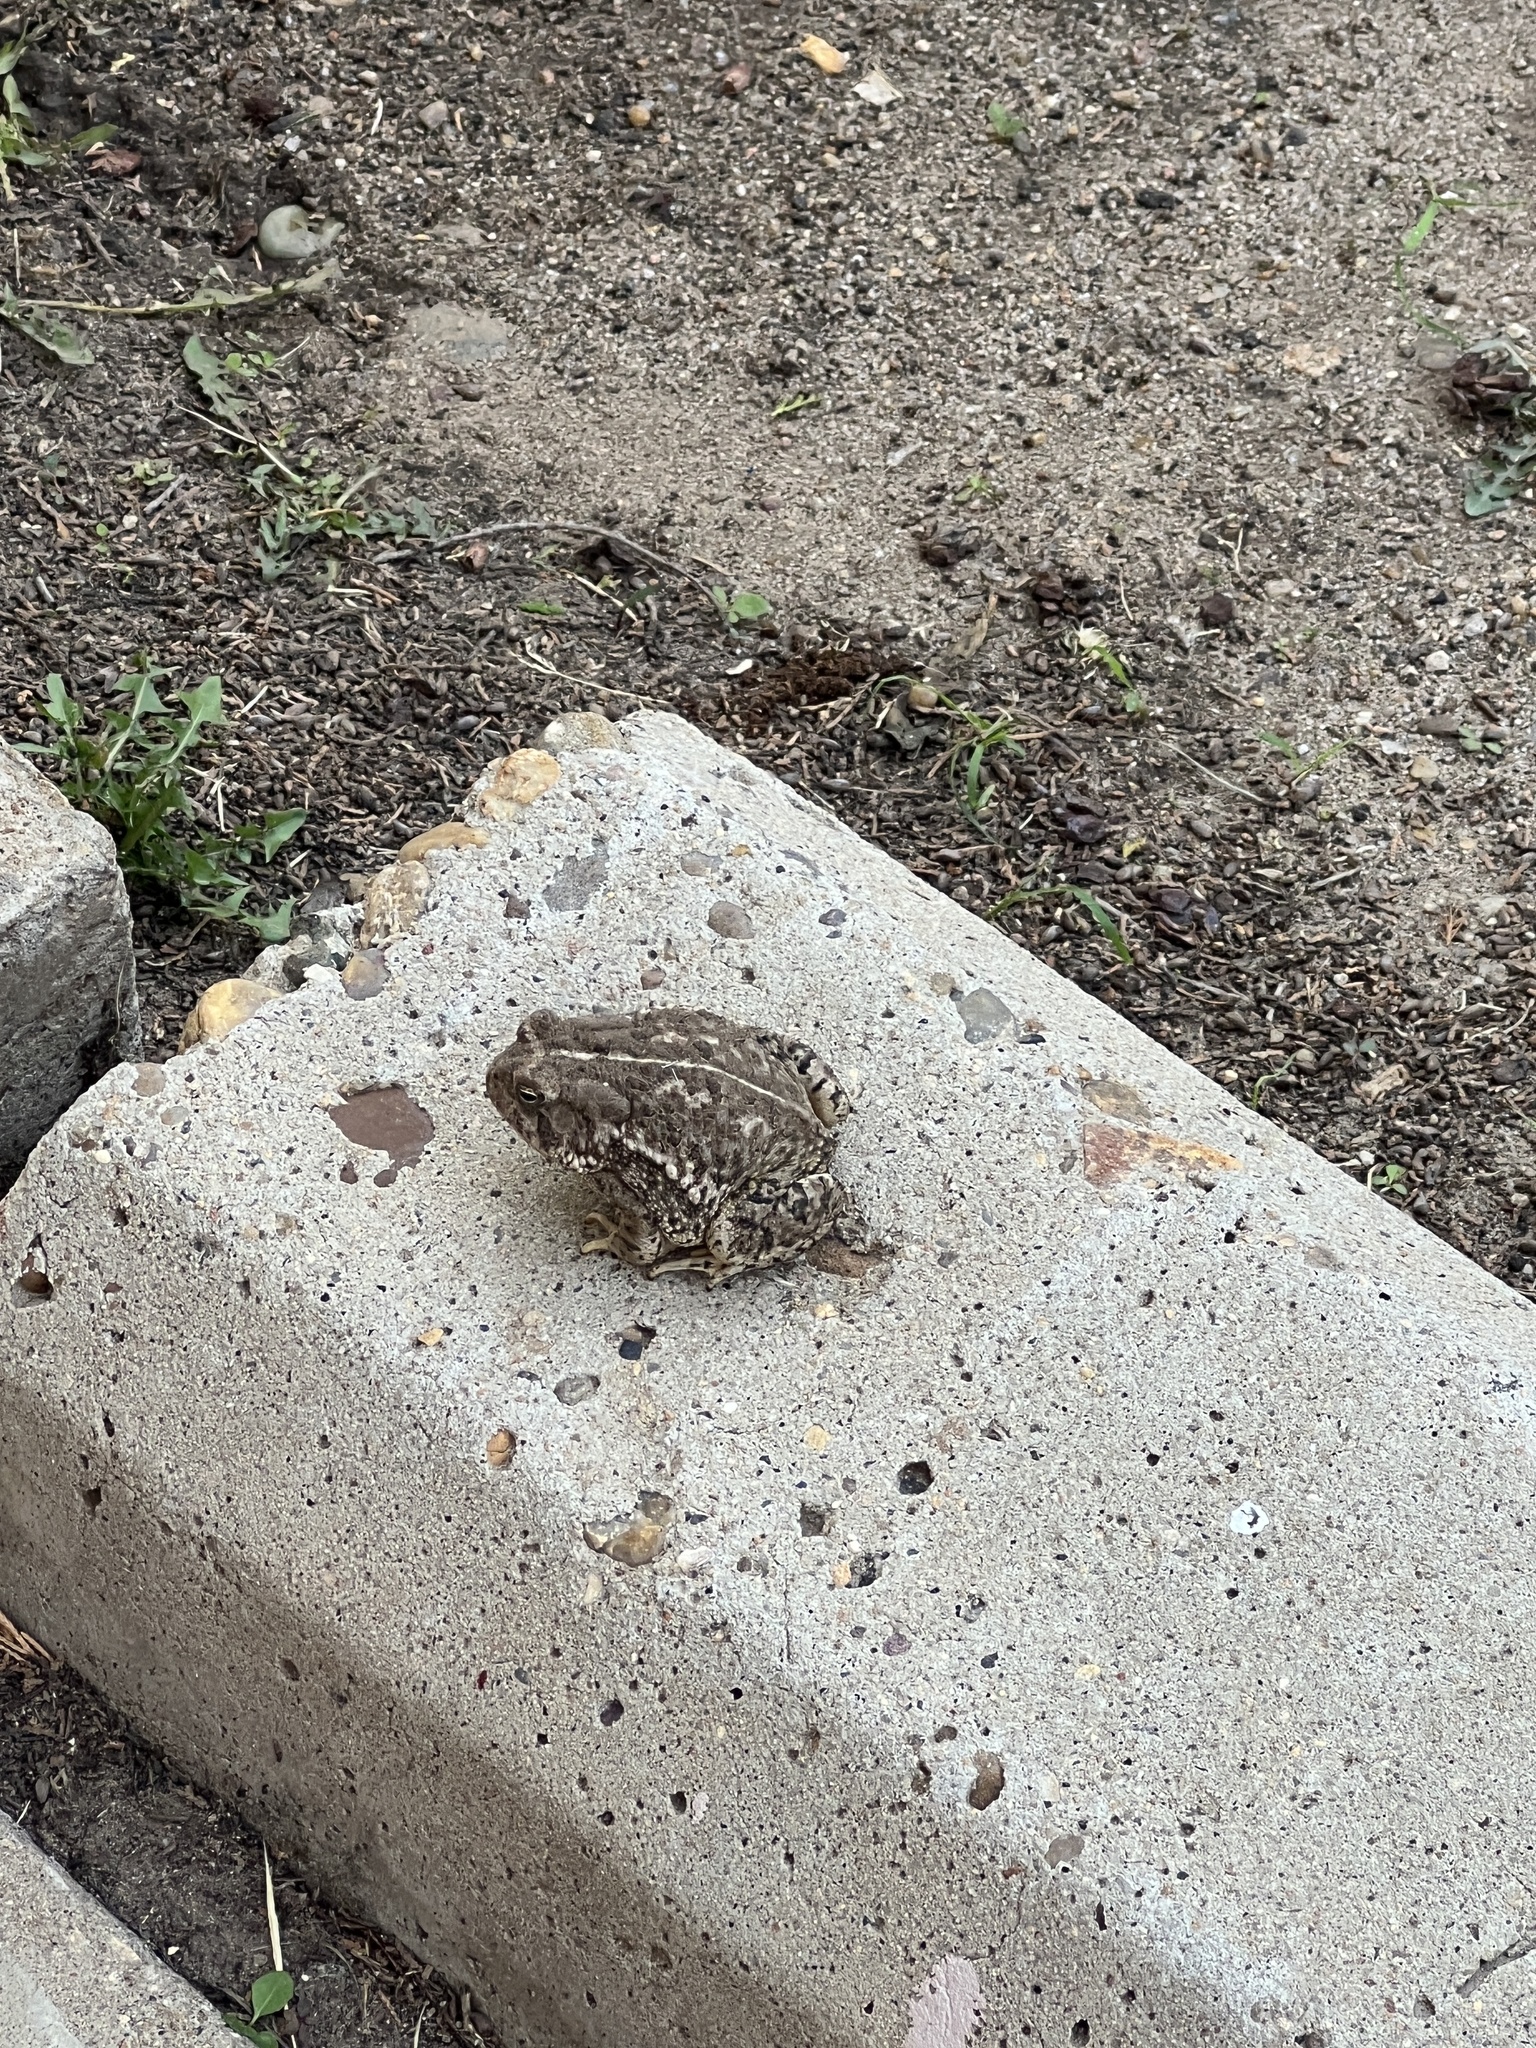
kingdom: Animalia
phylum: Chordata
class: Amphibia
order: Anura
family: Bufonidae
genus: Anaxyrus
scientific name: Anaxyrus woodhousii
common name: Woodhouse's toad
